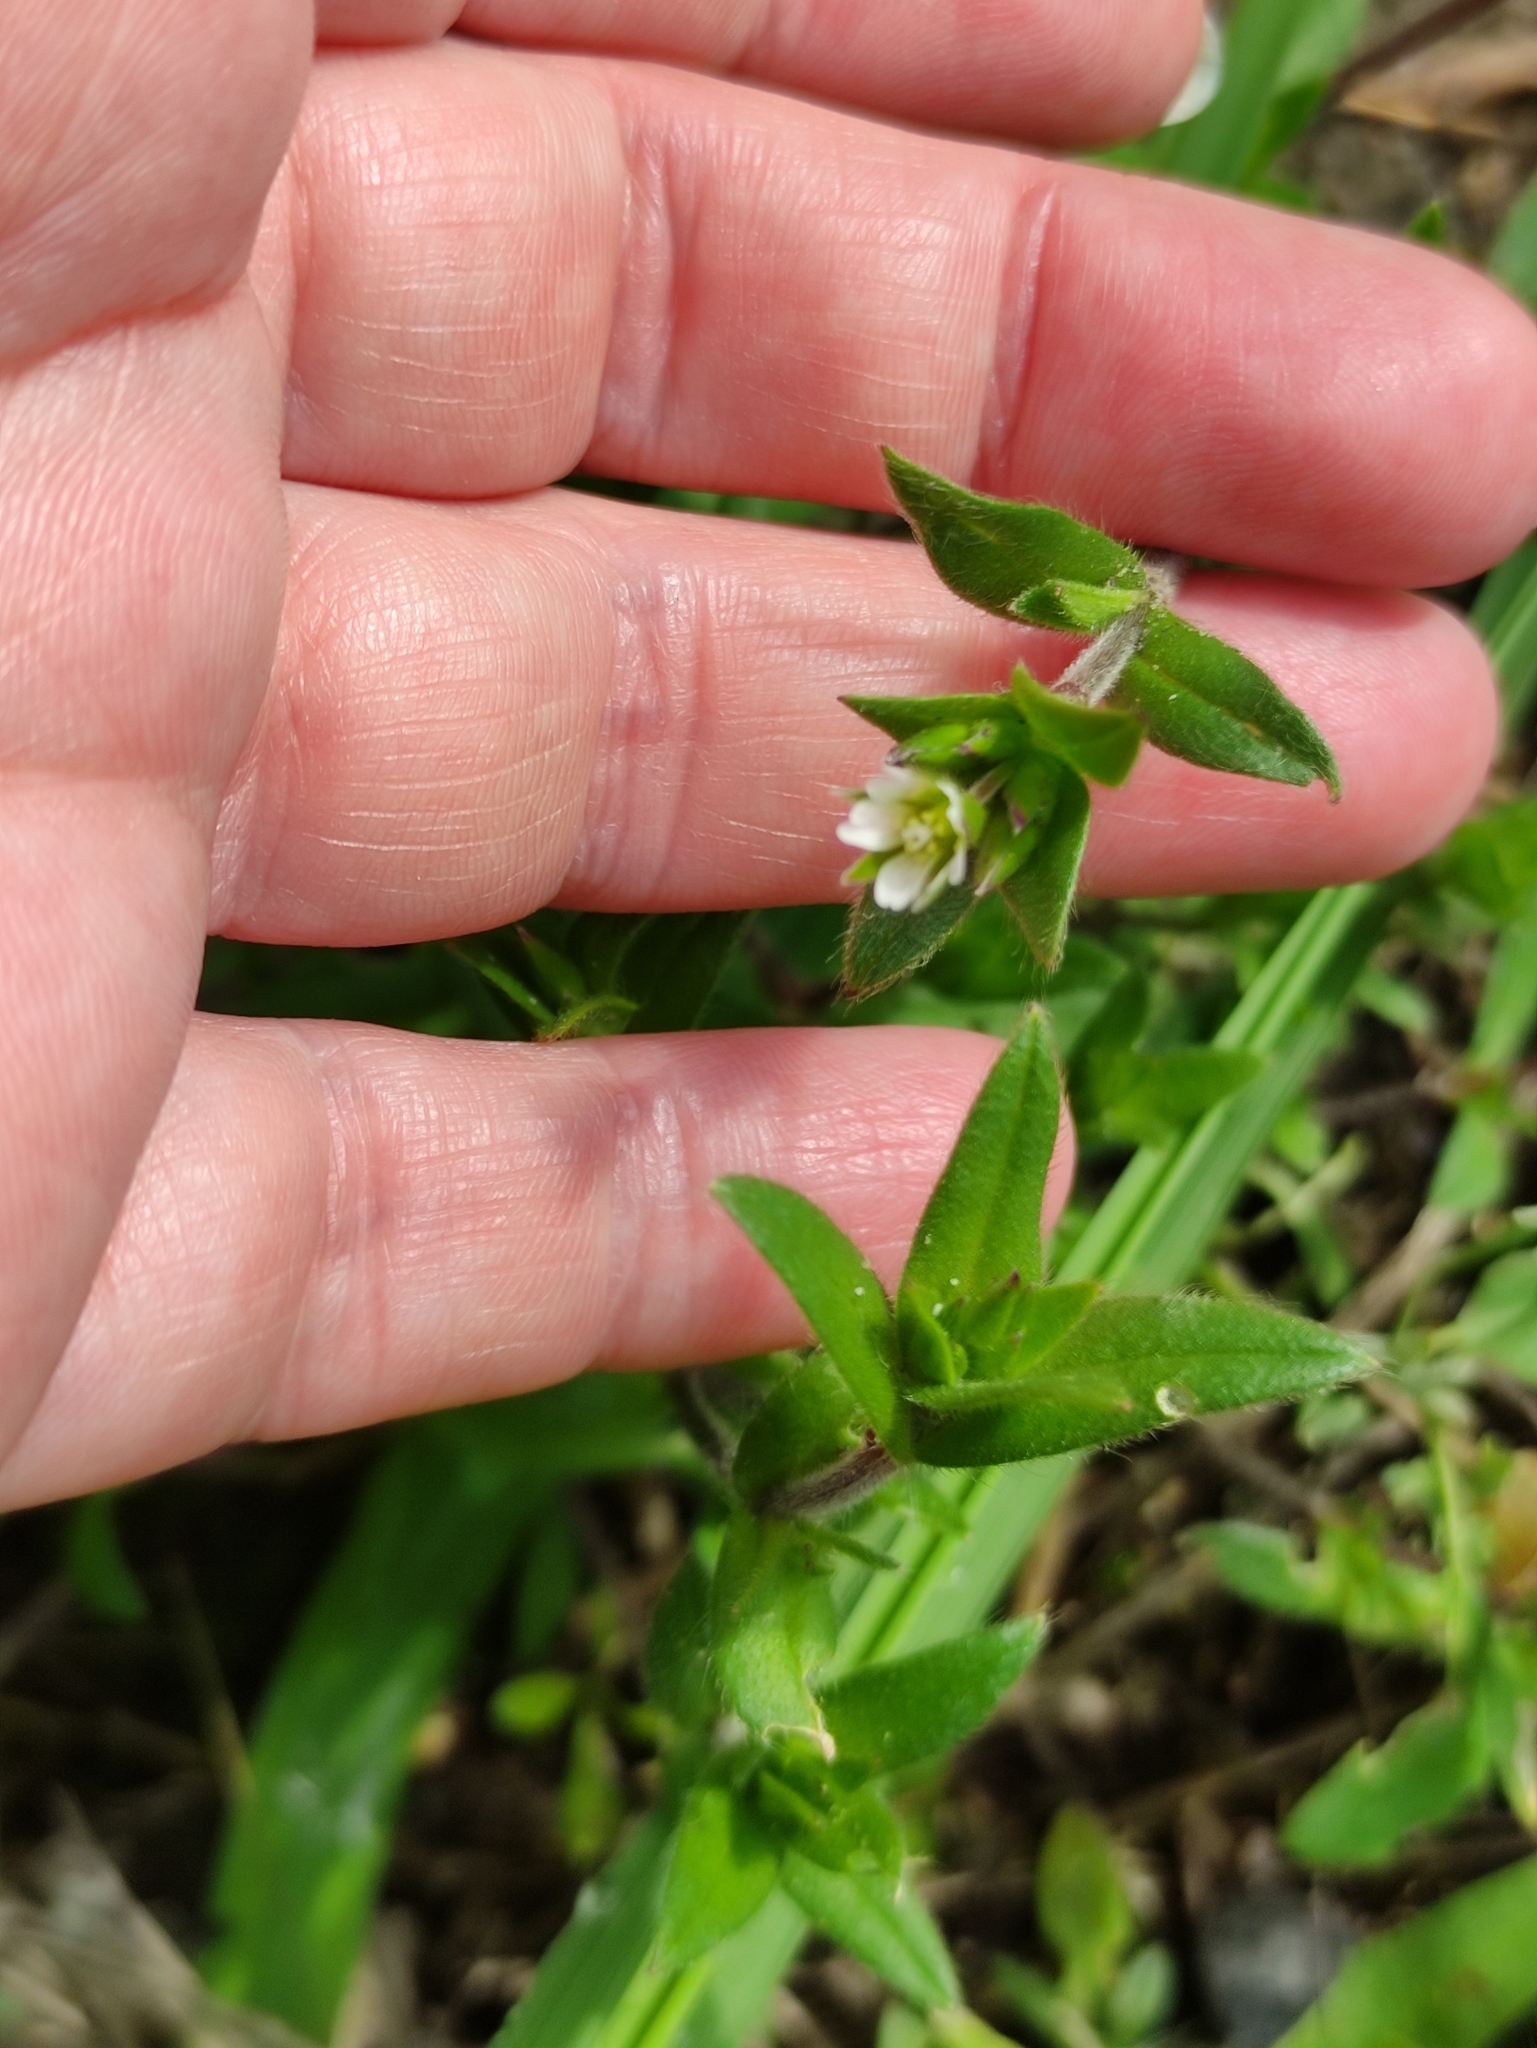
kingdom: Plantae
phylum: Tracheophyta
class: Magnoliopsida
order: Caryophyllales
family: Caryophyllaceae
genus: Cerastium
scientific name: Cerastium holosteoides
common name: Big chickweed
